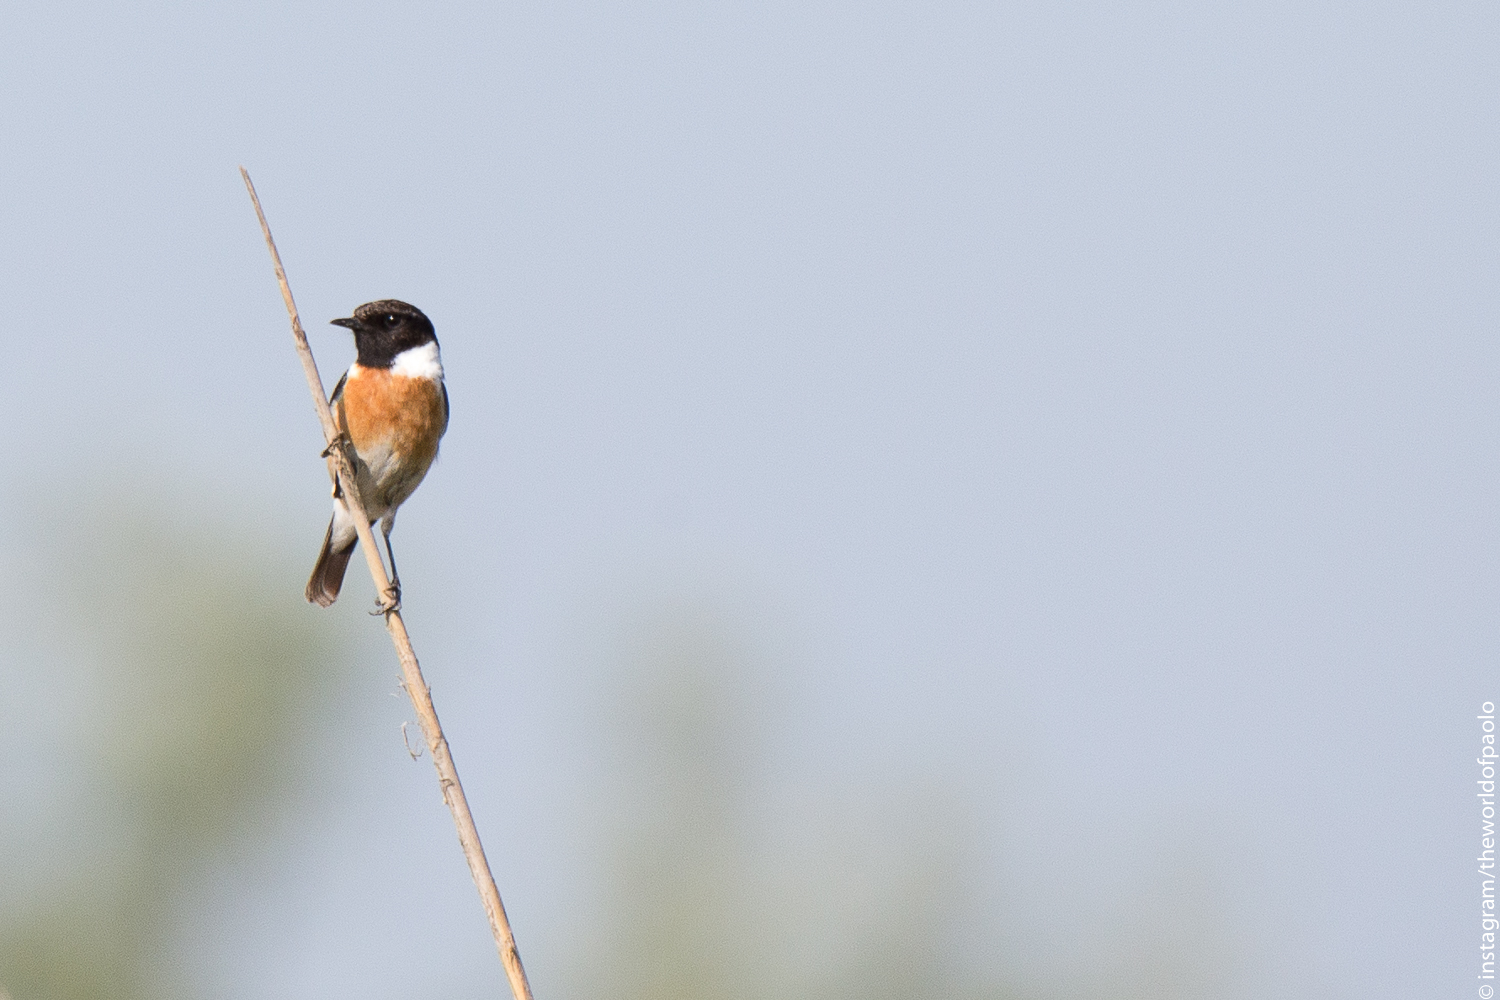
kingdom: Animalia
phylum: Chordata
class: Aves
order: Passeriformes
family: Muscicapidae
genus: Saxicola
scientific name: Saxicola rubicola
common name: European stonechat
